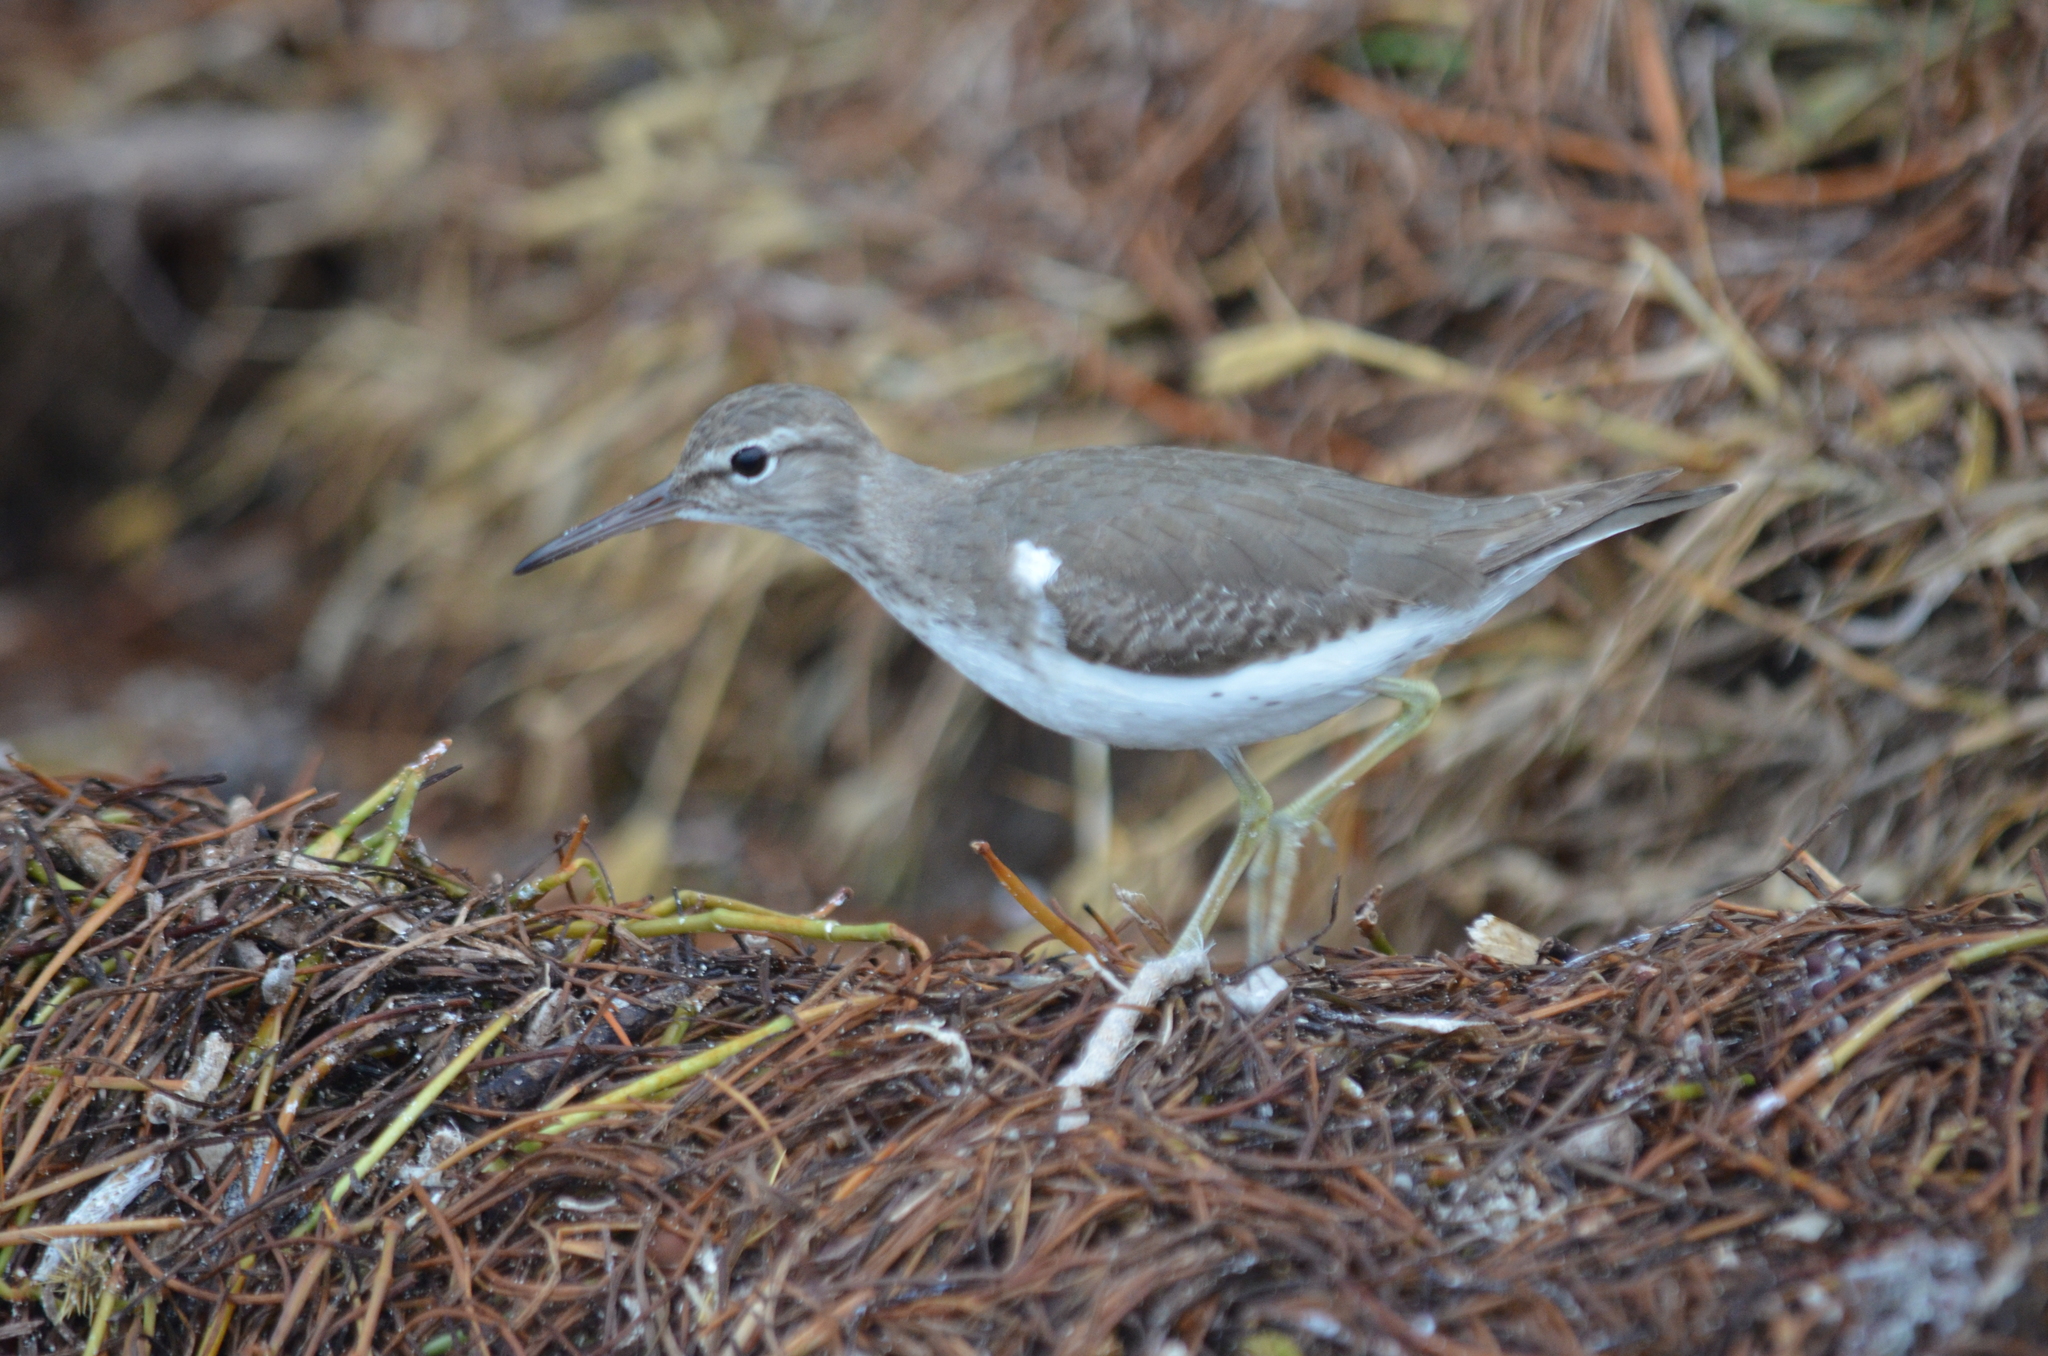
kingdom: Animalia
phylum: Chordata
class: Aves
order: Charadriiformes
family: Scolopacidae
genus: Actitis
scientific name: Actitis macularius
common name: Spotted sandpiper
